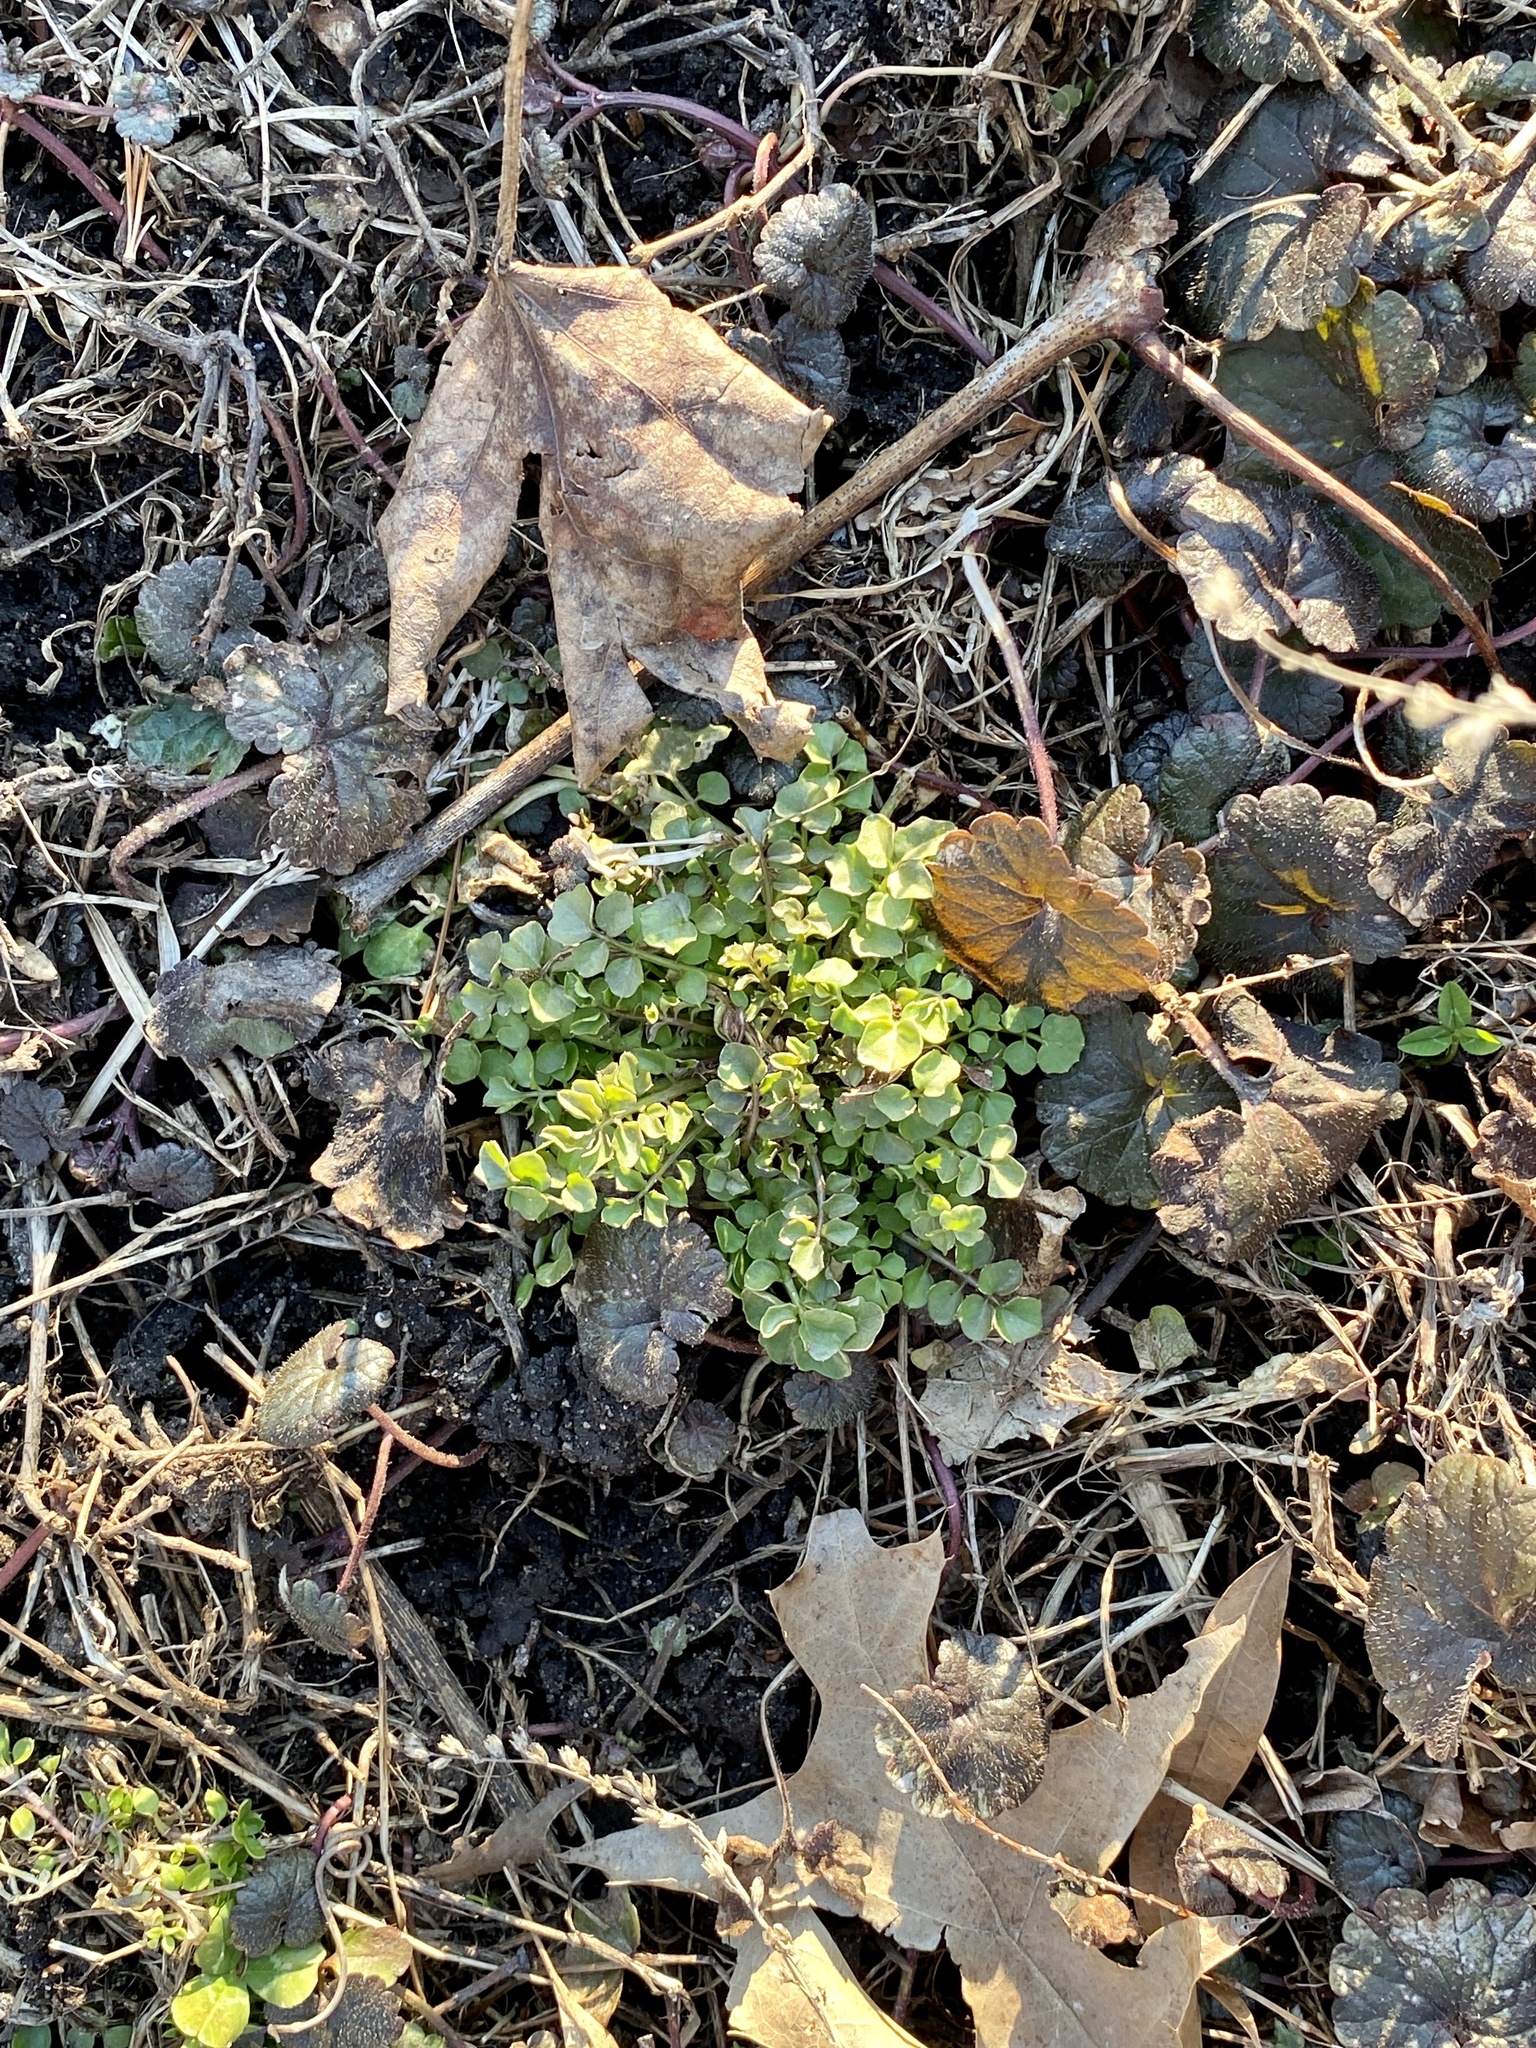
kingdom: Plantae
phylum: Tracheophyta
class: Magnoliopsida
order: Brassicales
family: Brassicaceae
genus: Cardamine
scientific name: Cardamine hirsuta
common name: Hairy bittercress
